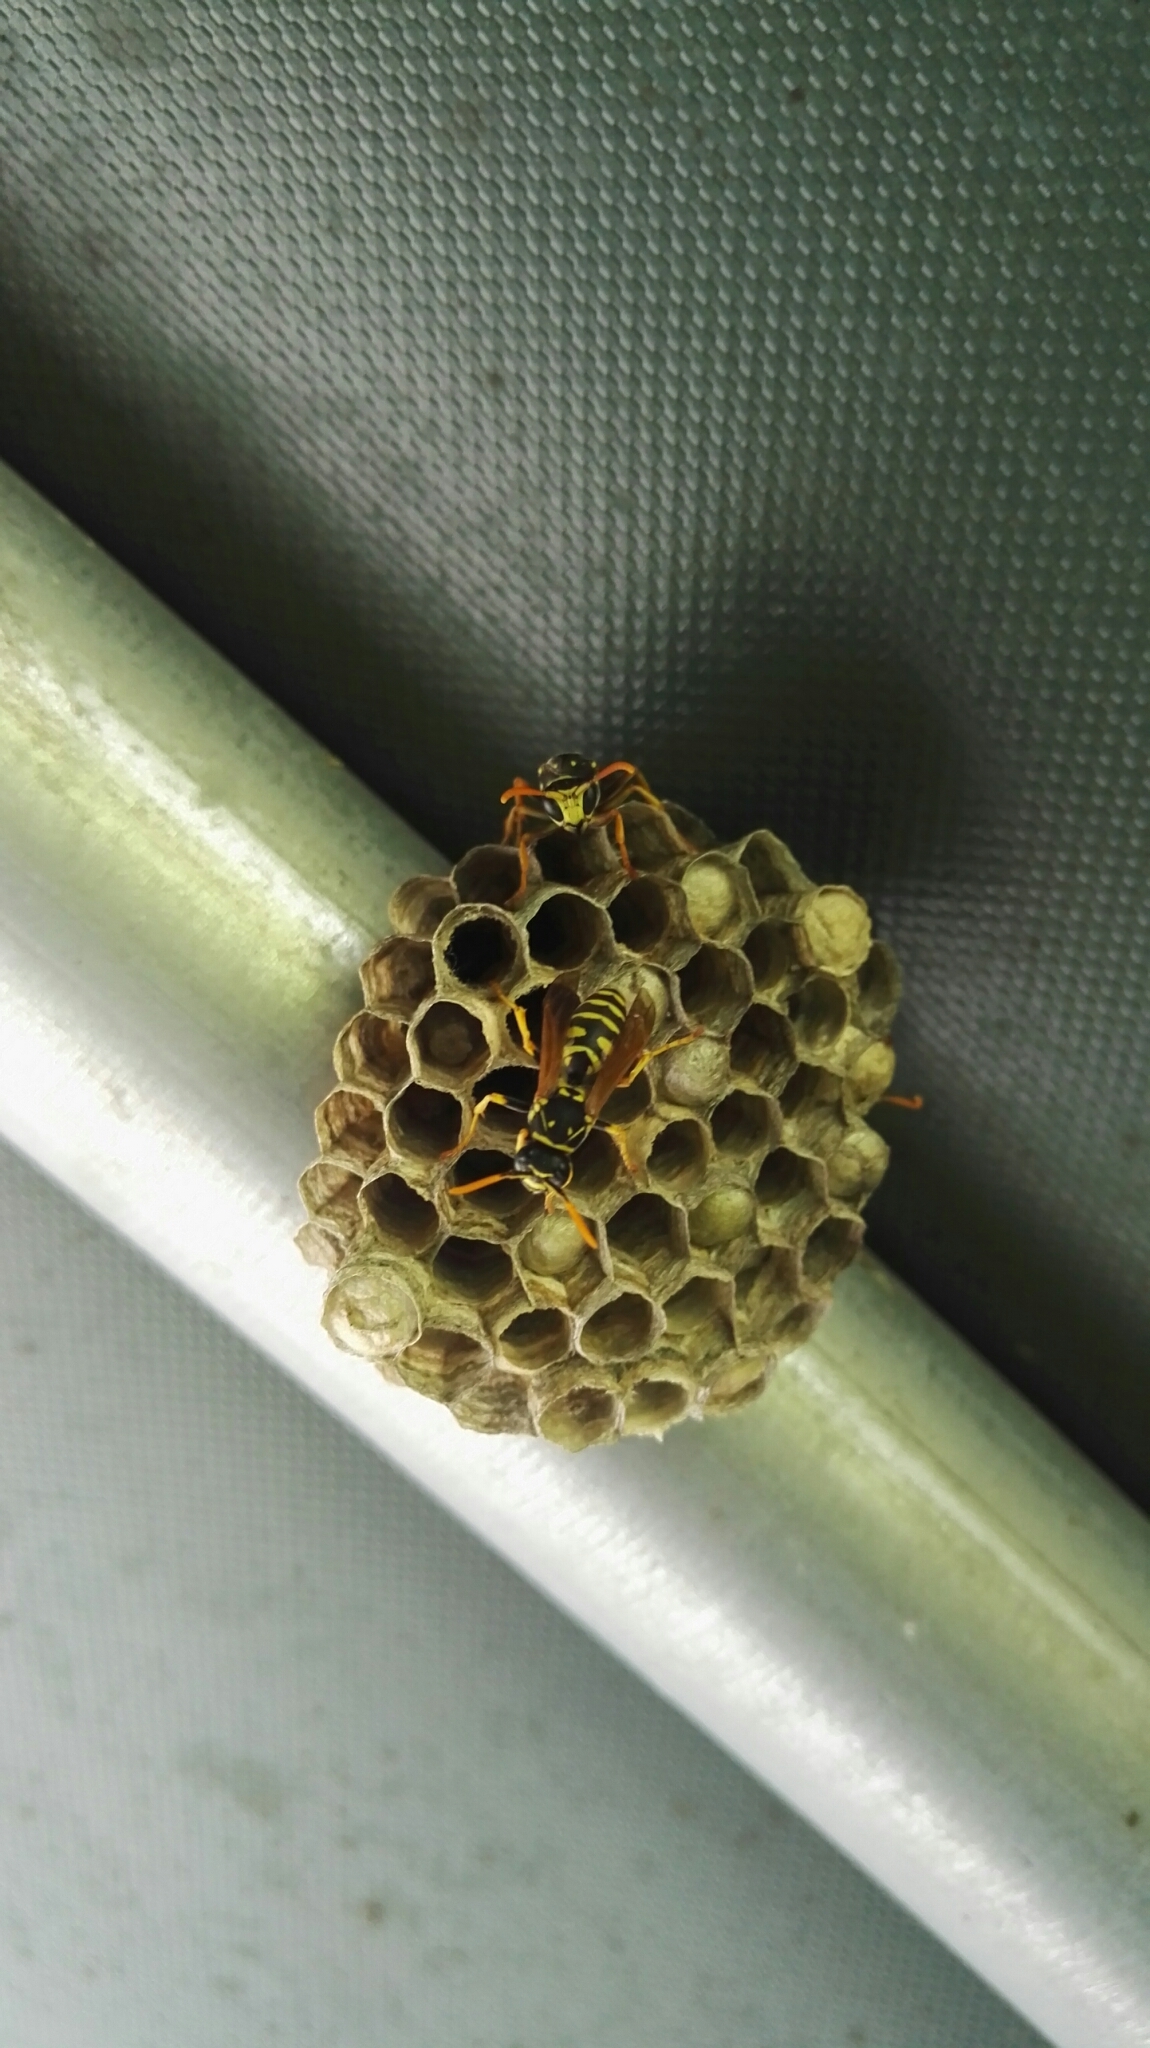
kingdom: Animalia
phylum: Arthropoda
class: Insecta
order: Hymenoptera
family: Eumenidae
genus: Polistes
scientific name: Polistes dominula
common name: Paper wasp
